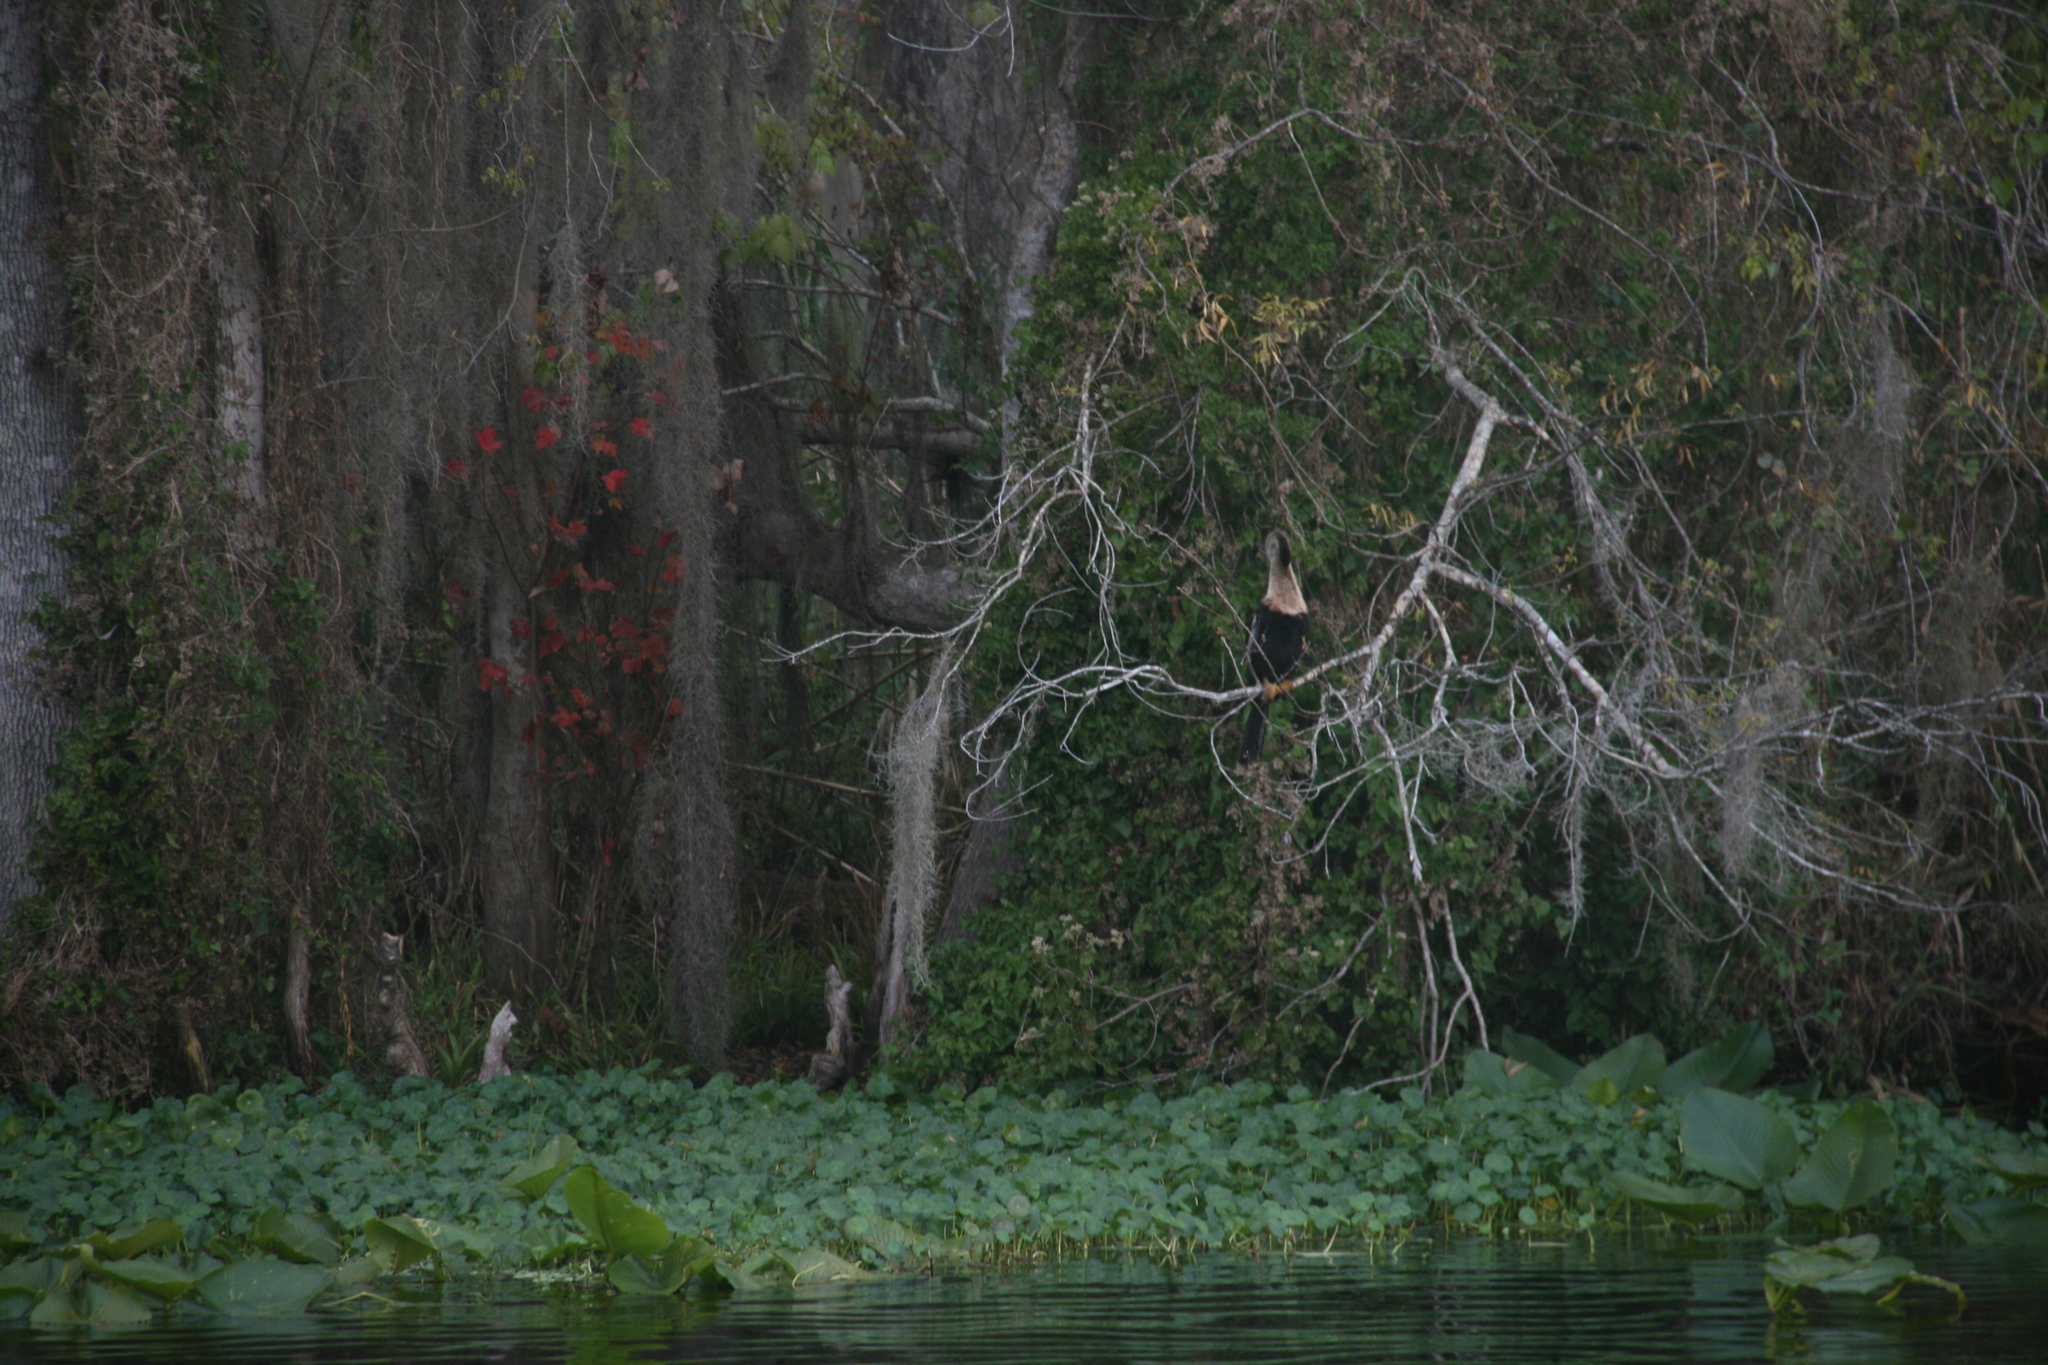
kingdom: Animalia
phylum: Chordata
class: Aves
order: Suliformes
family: Anhingidae
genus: Anhinga
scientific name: Anhinga anhinga
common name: Anhinga
